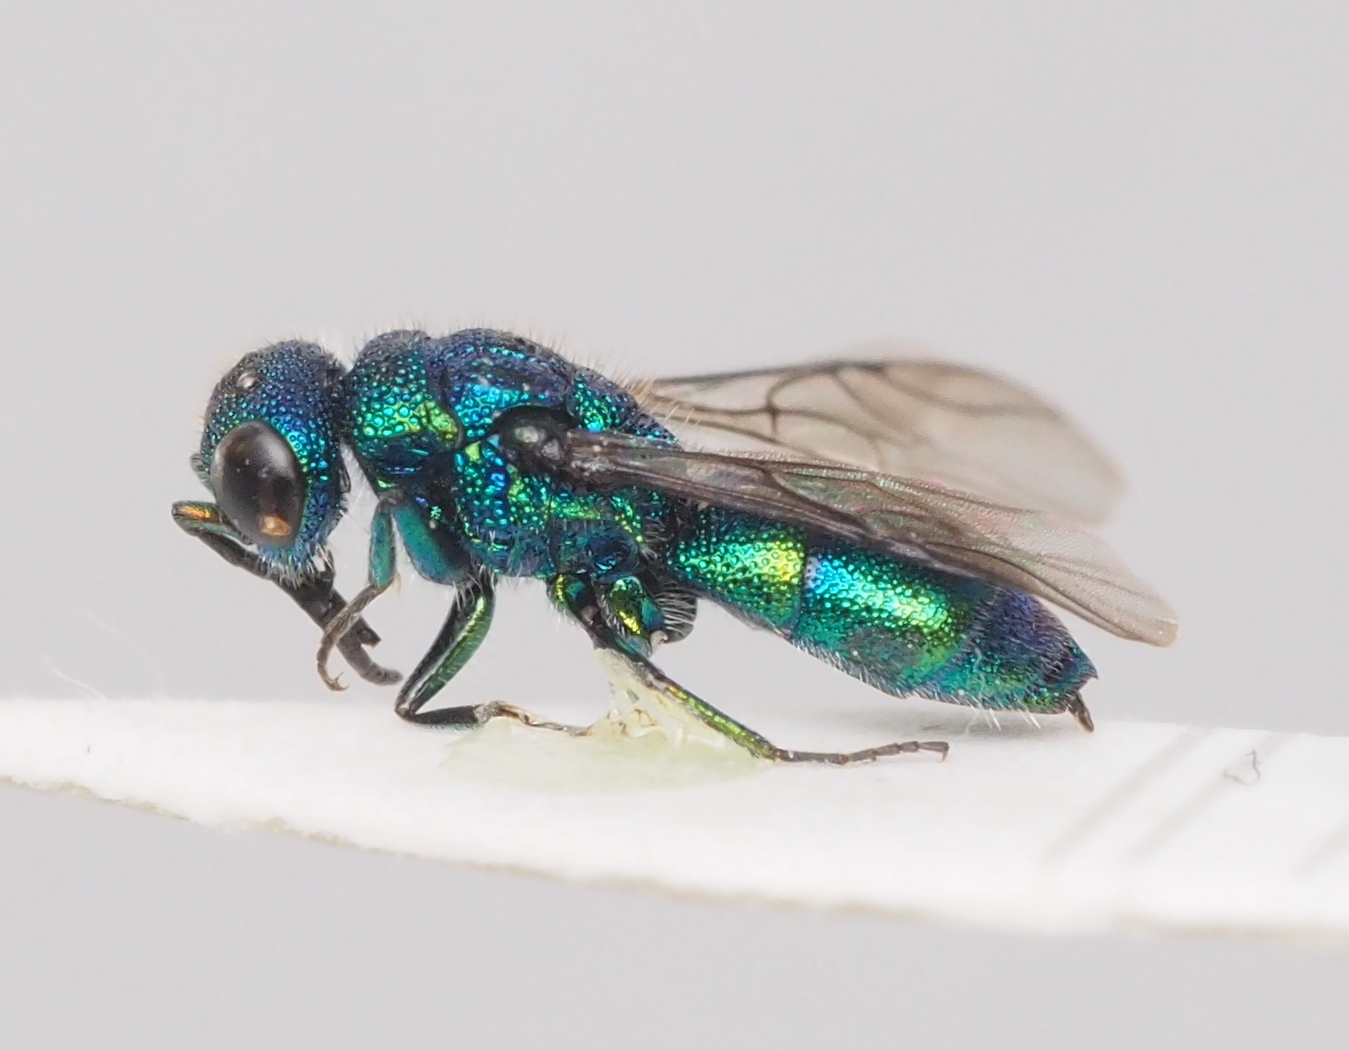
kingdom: Animalia
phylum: Arthropoda
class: Insecta
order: Hymenoptera
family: Pompilidae
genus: Pepsis
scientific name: Pepsis cyanea
